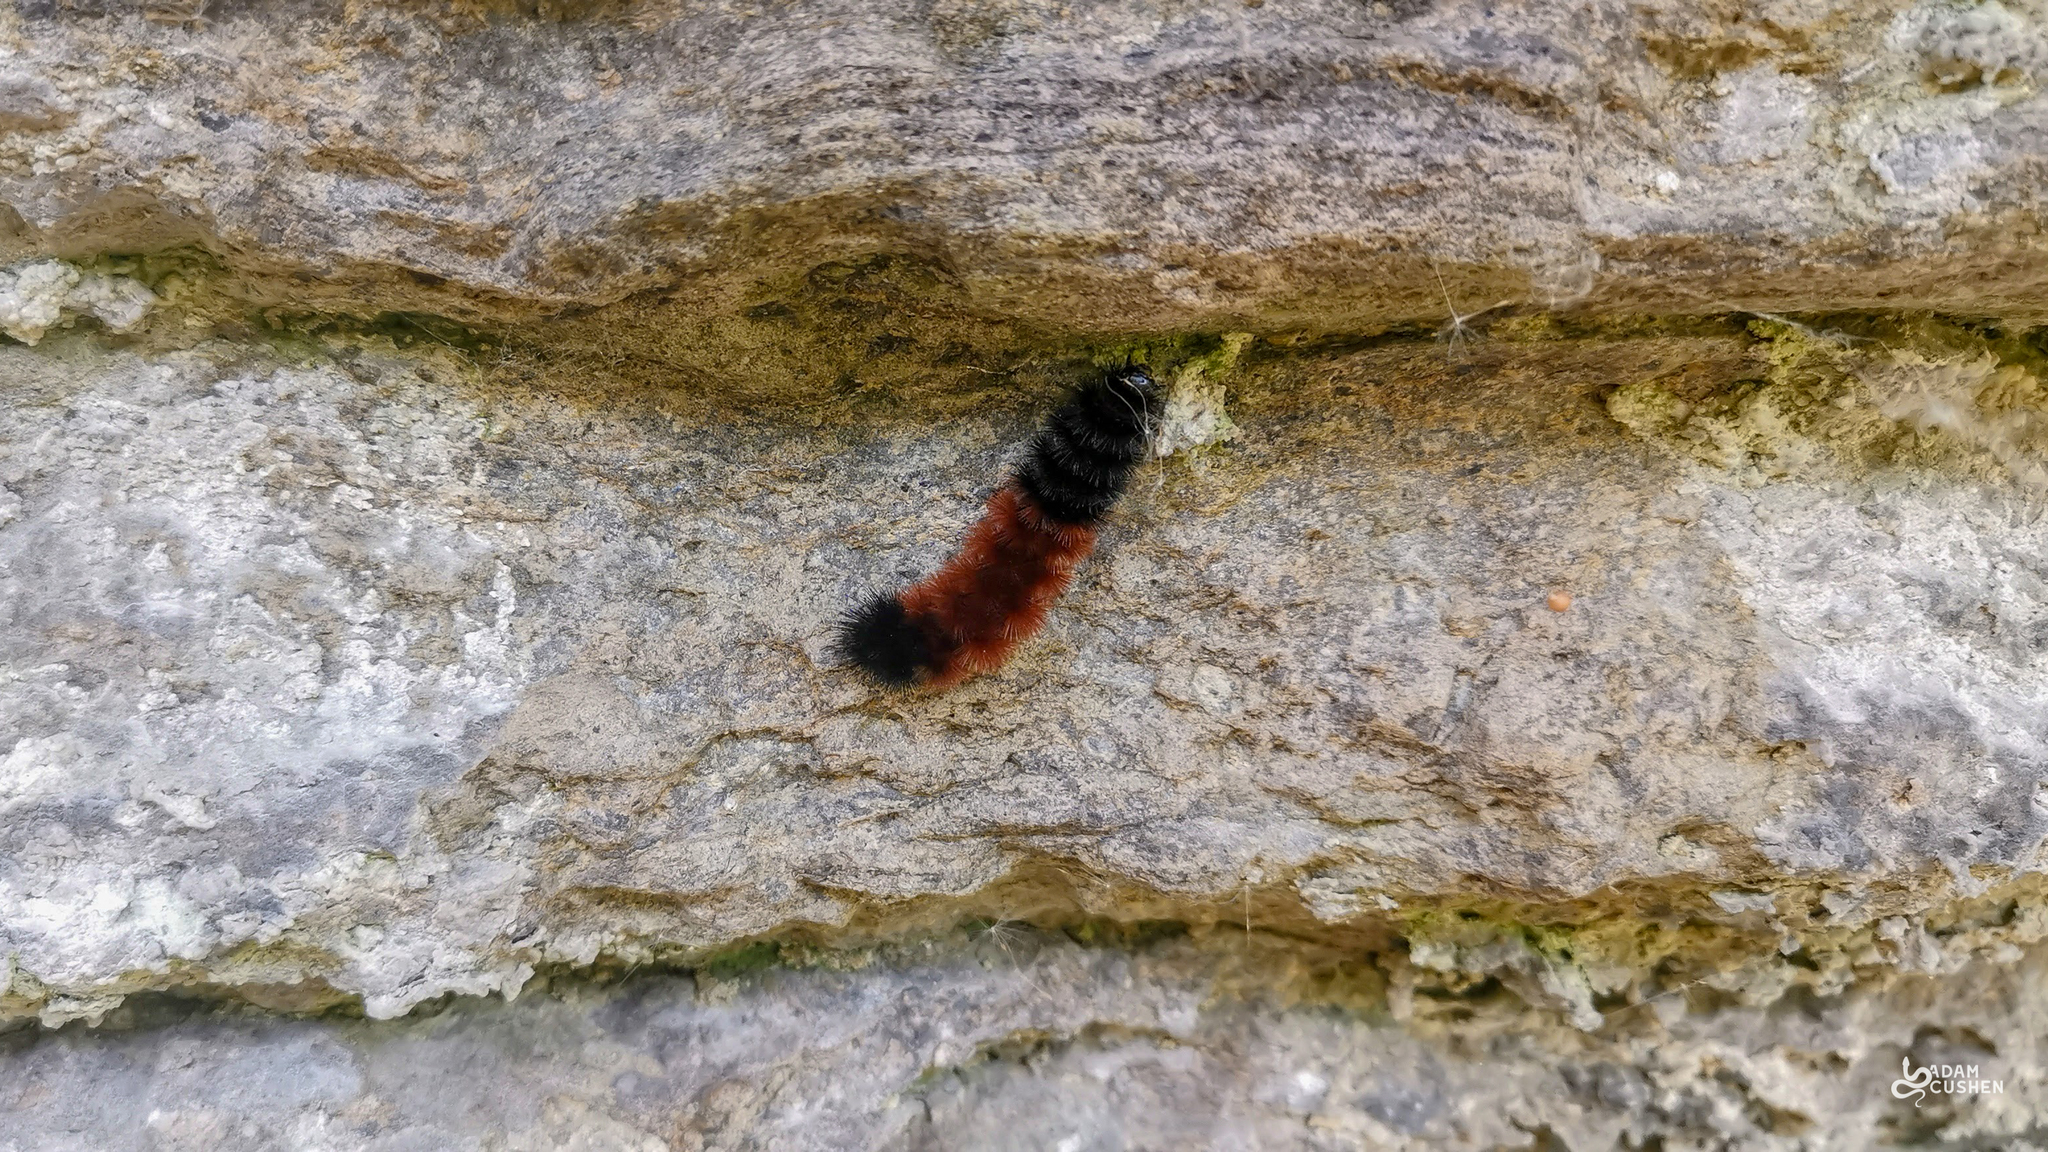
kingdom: Animalia
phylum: Arthropoda
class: Insecta
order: Lepidoptera
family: Erebidae
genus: Pyrrharctia
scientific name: Pyrrharctia isabella
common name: Isabella tiger moth
